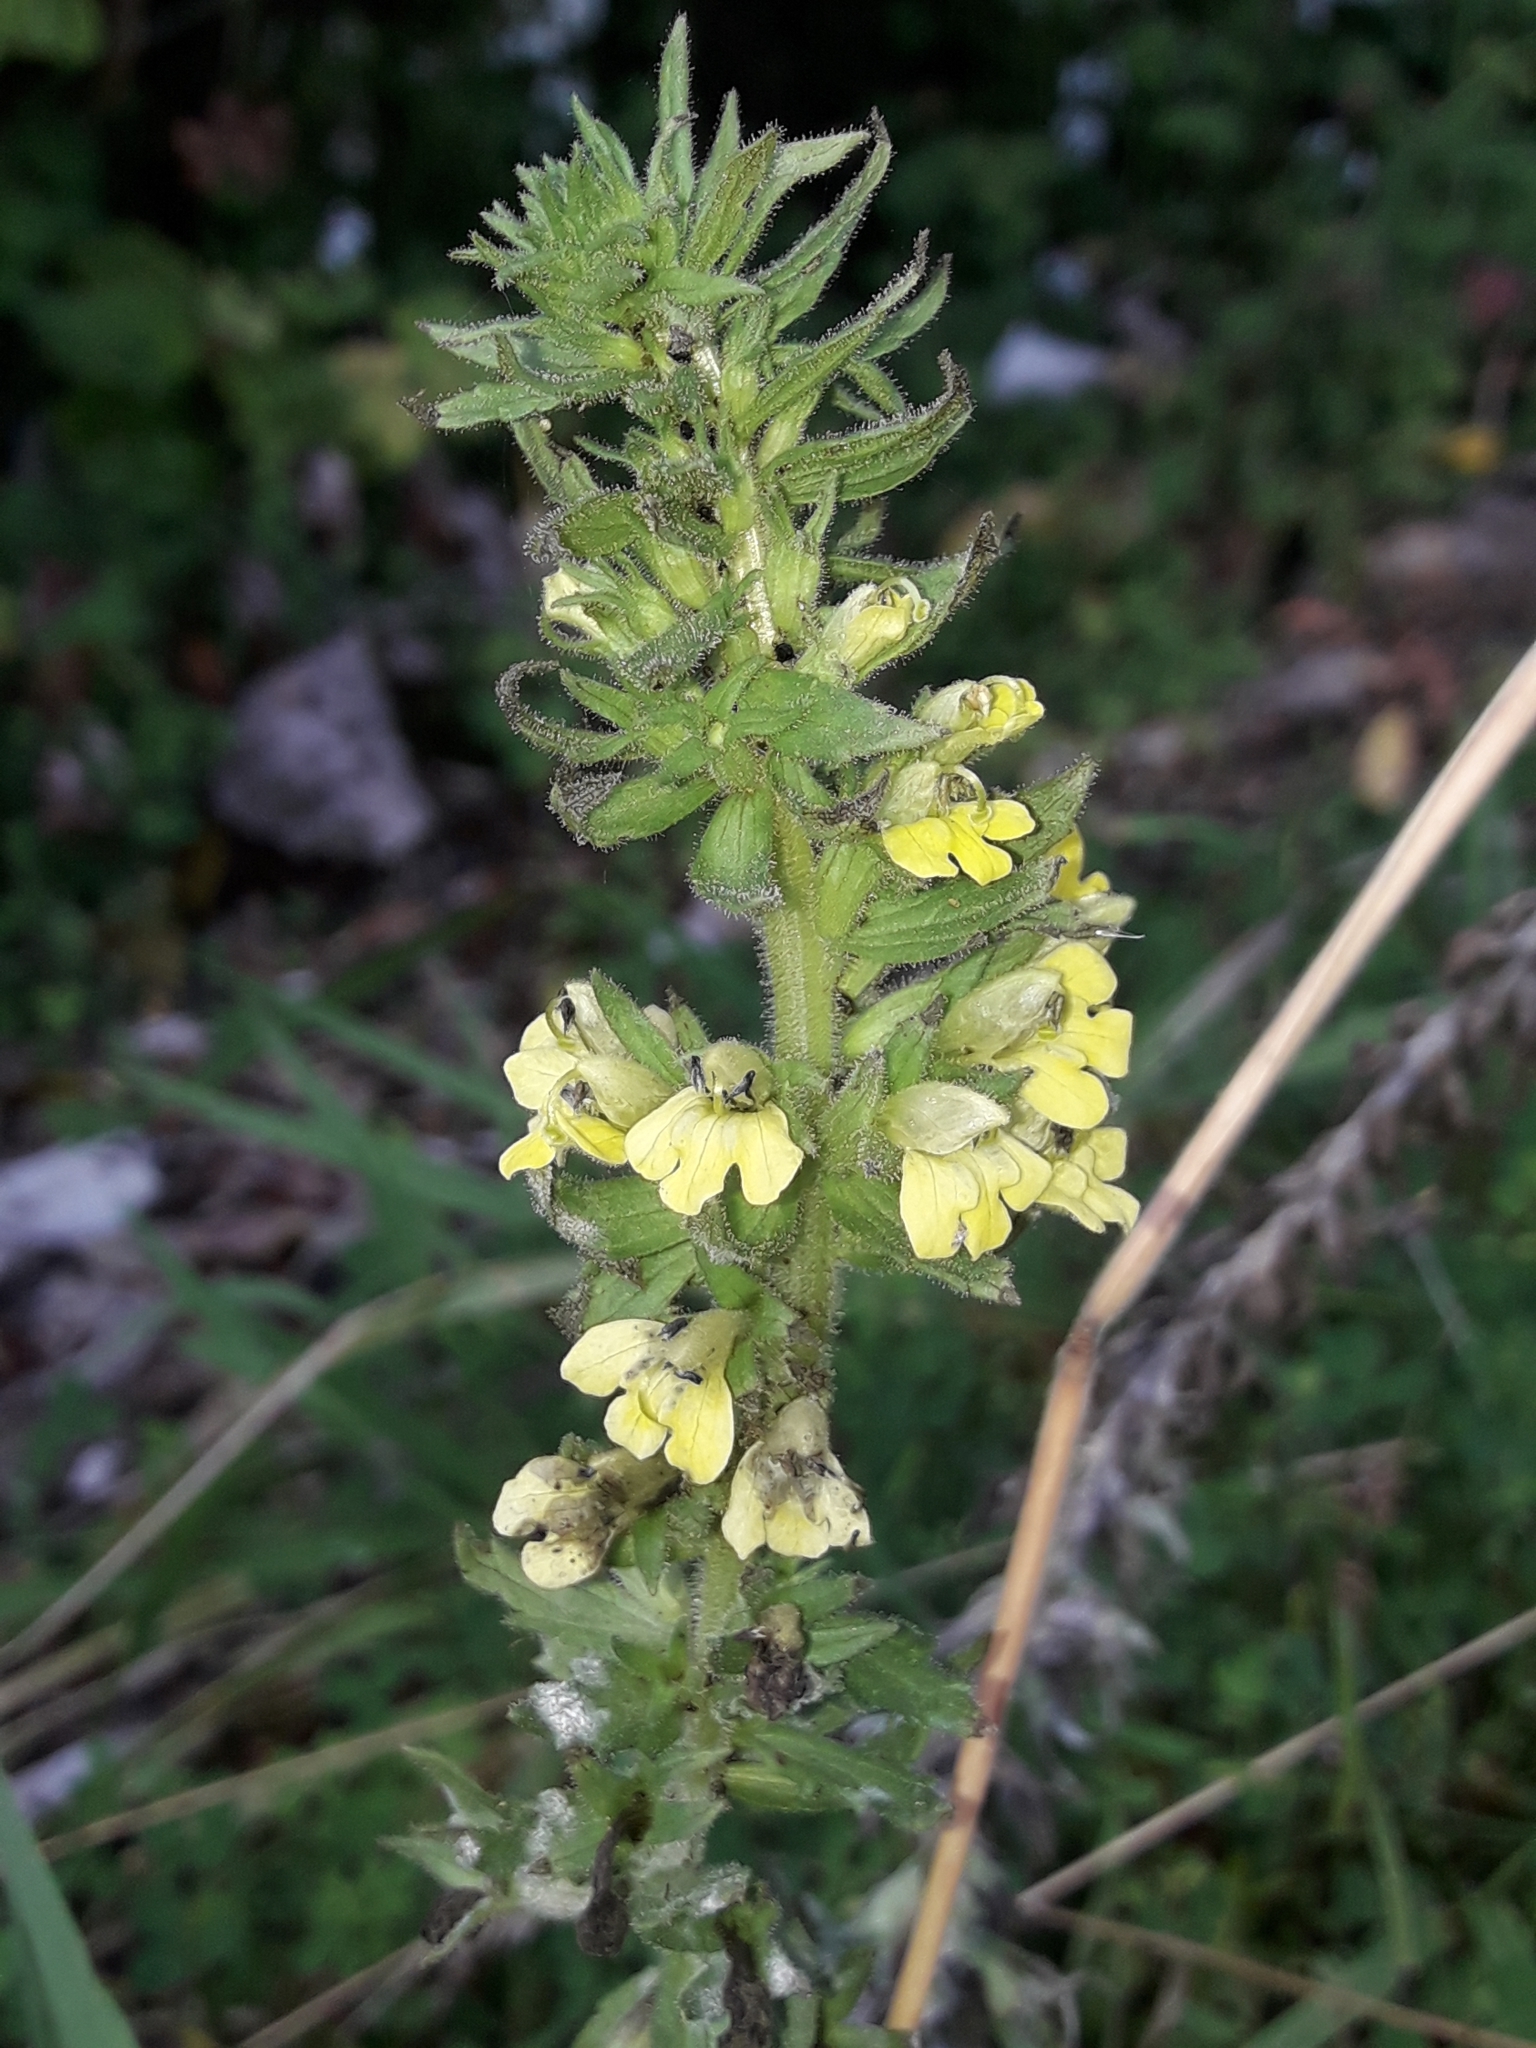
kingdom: Plantae
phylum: Tracheophyta
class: Magnoliopsida
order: Lamiales
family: Orobanchaceae
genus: Bellardia
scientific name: Bellardia viscosa
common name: Sticky parentucellia
